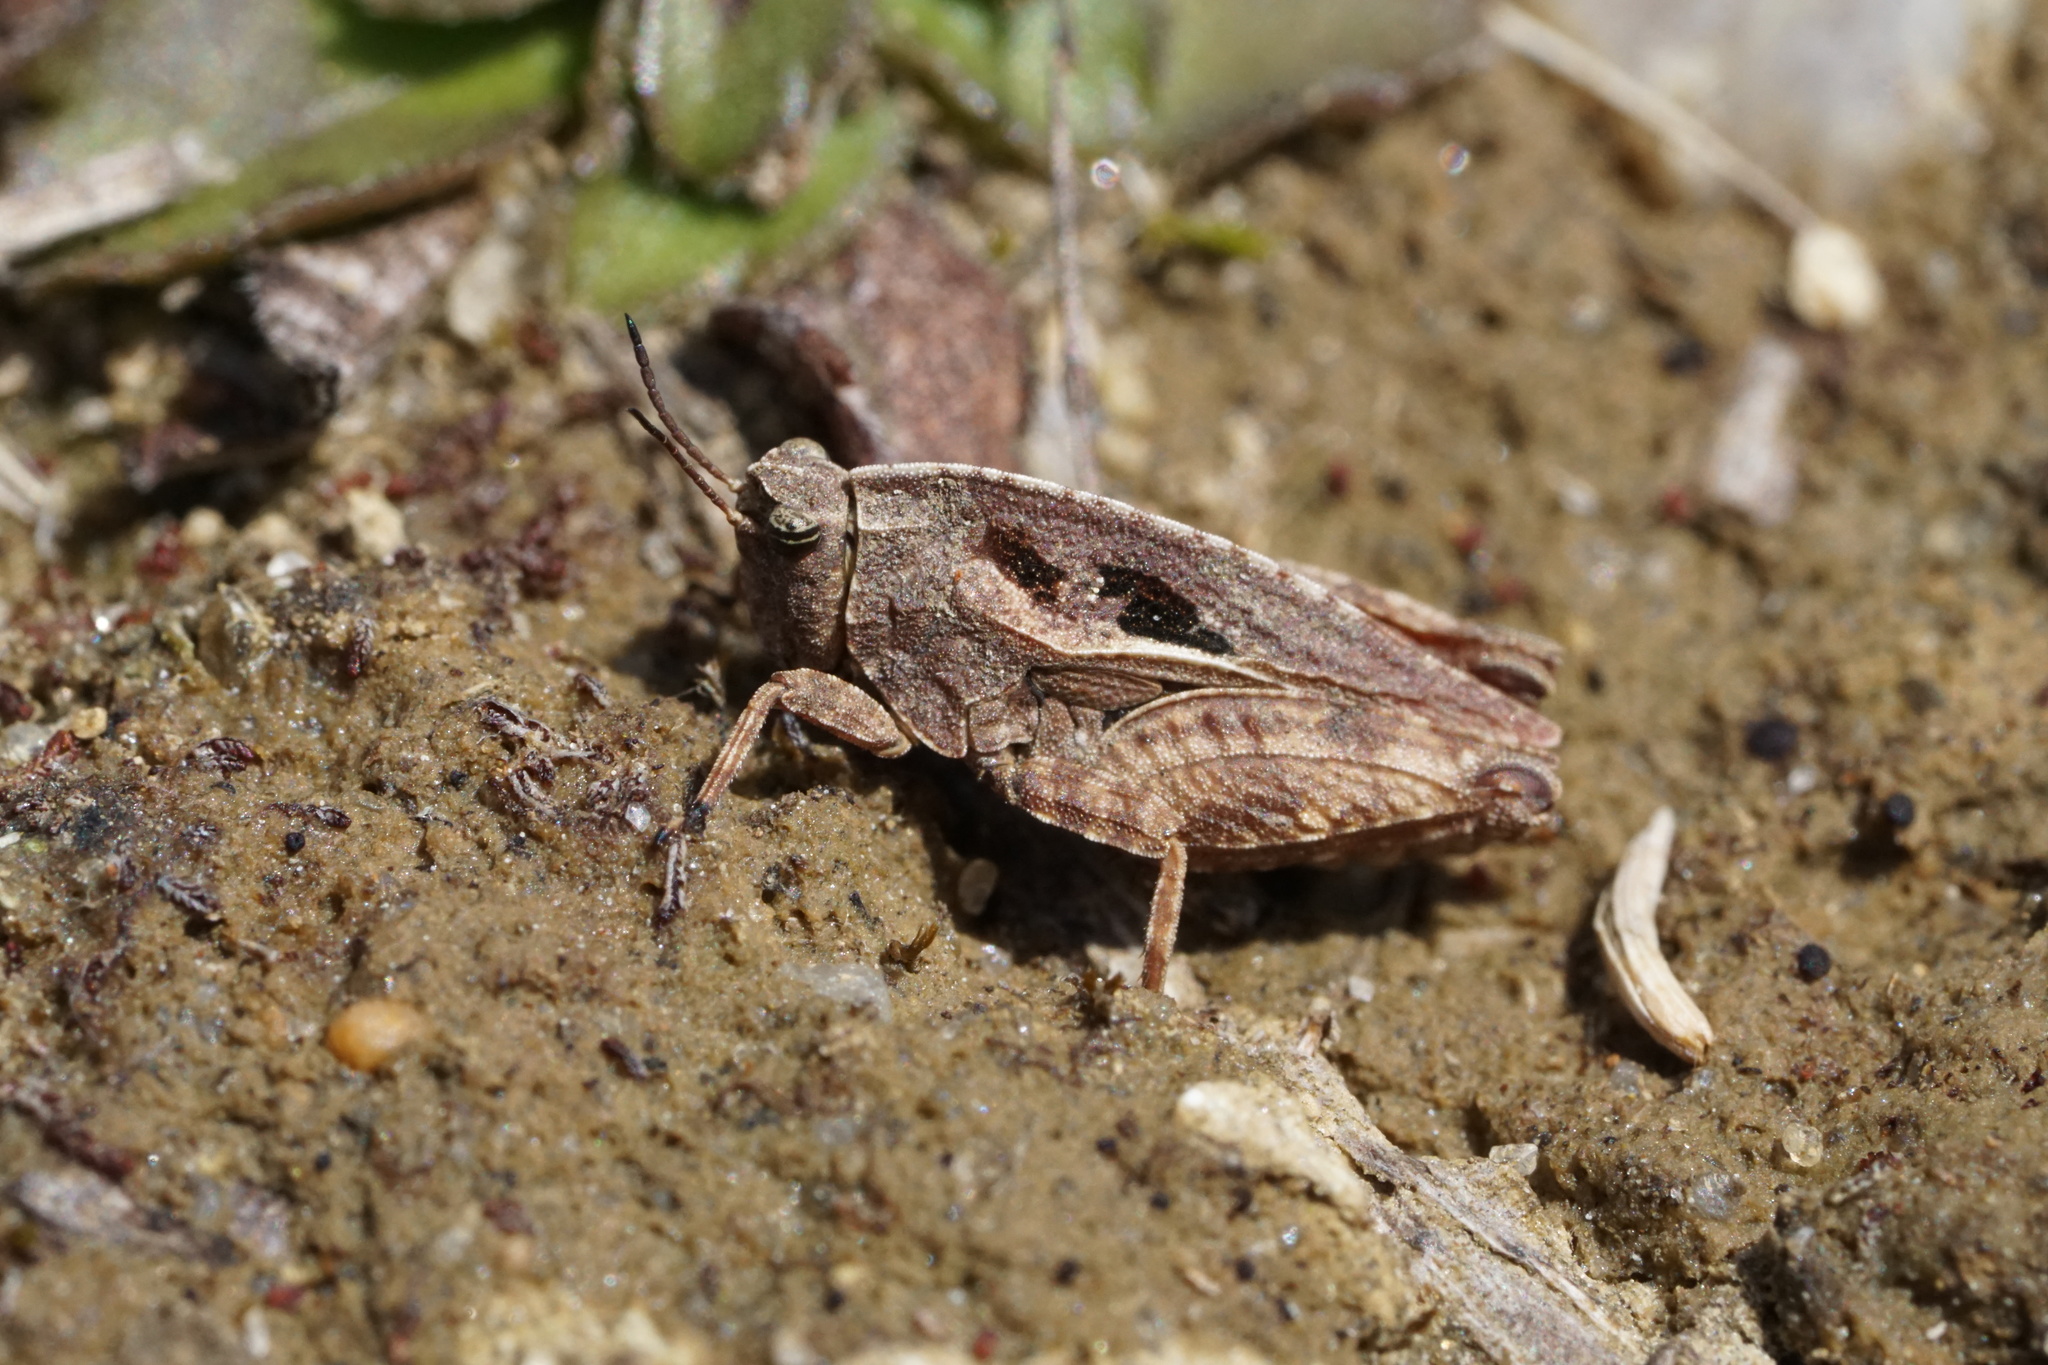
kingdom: Animalia
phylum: Arthropoda
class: Insecta
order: Orthoptera
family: Tetrigidae
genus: Nomotettix
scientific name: Nomotettix cristatus
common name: Crested grouse locust
